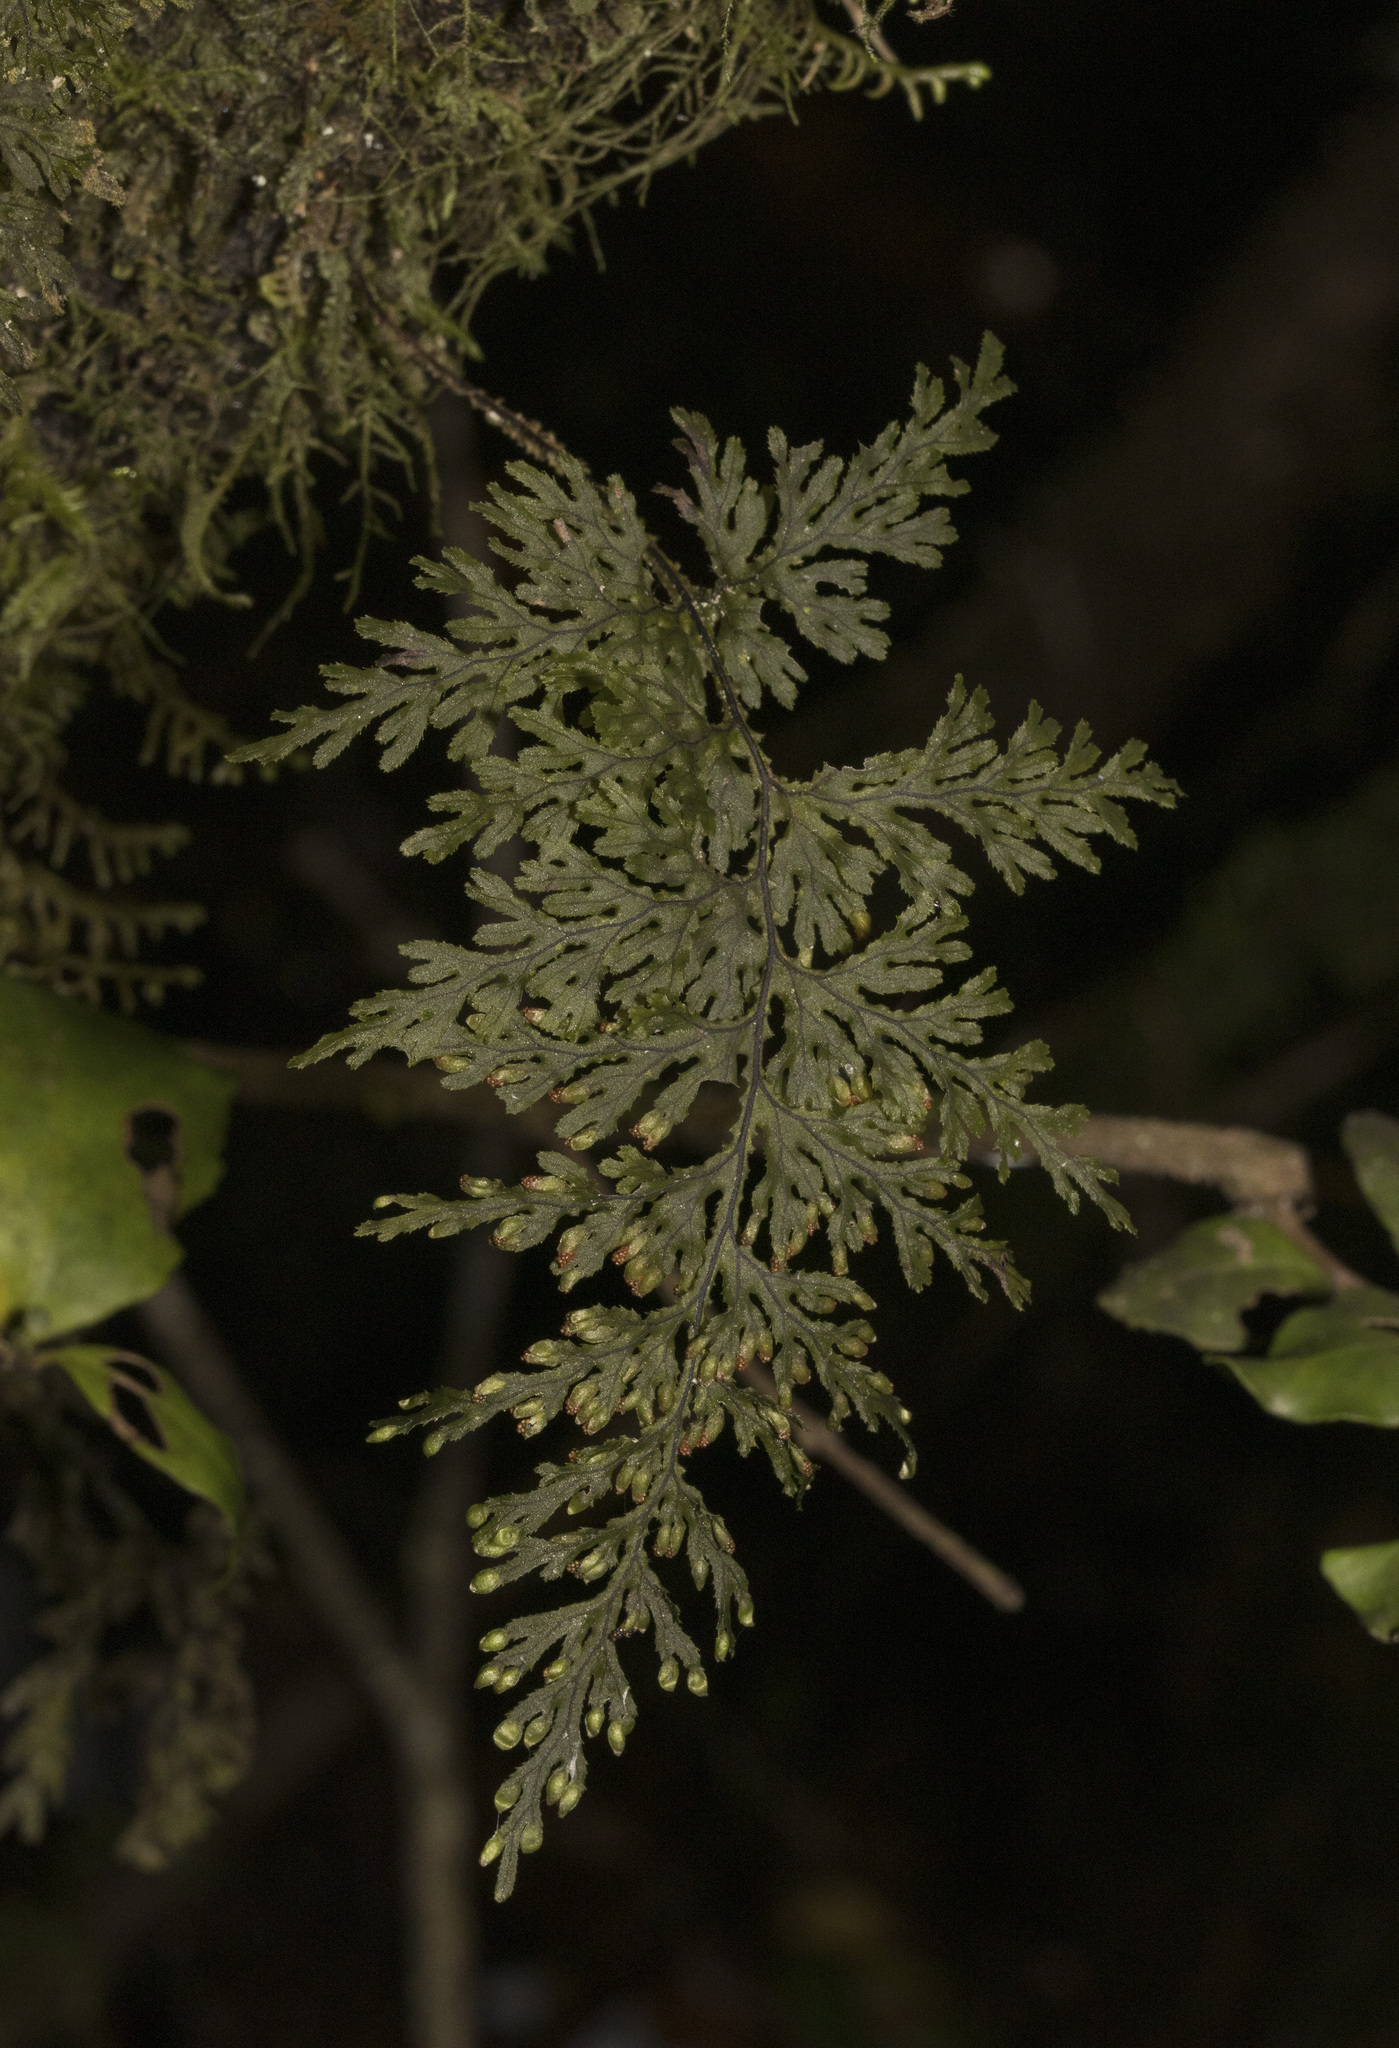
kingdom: Plantae
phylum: Tracheophyta
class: Polypodiopsida
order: Hymenophyllales
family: Hymenophyllaceae
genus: Hymenophyllum
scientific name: Hymenophyllum krauseanum
